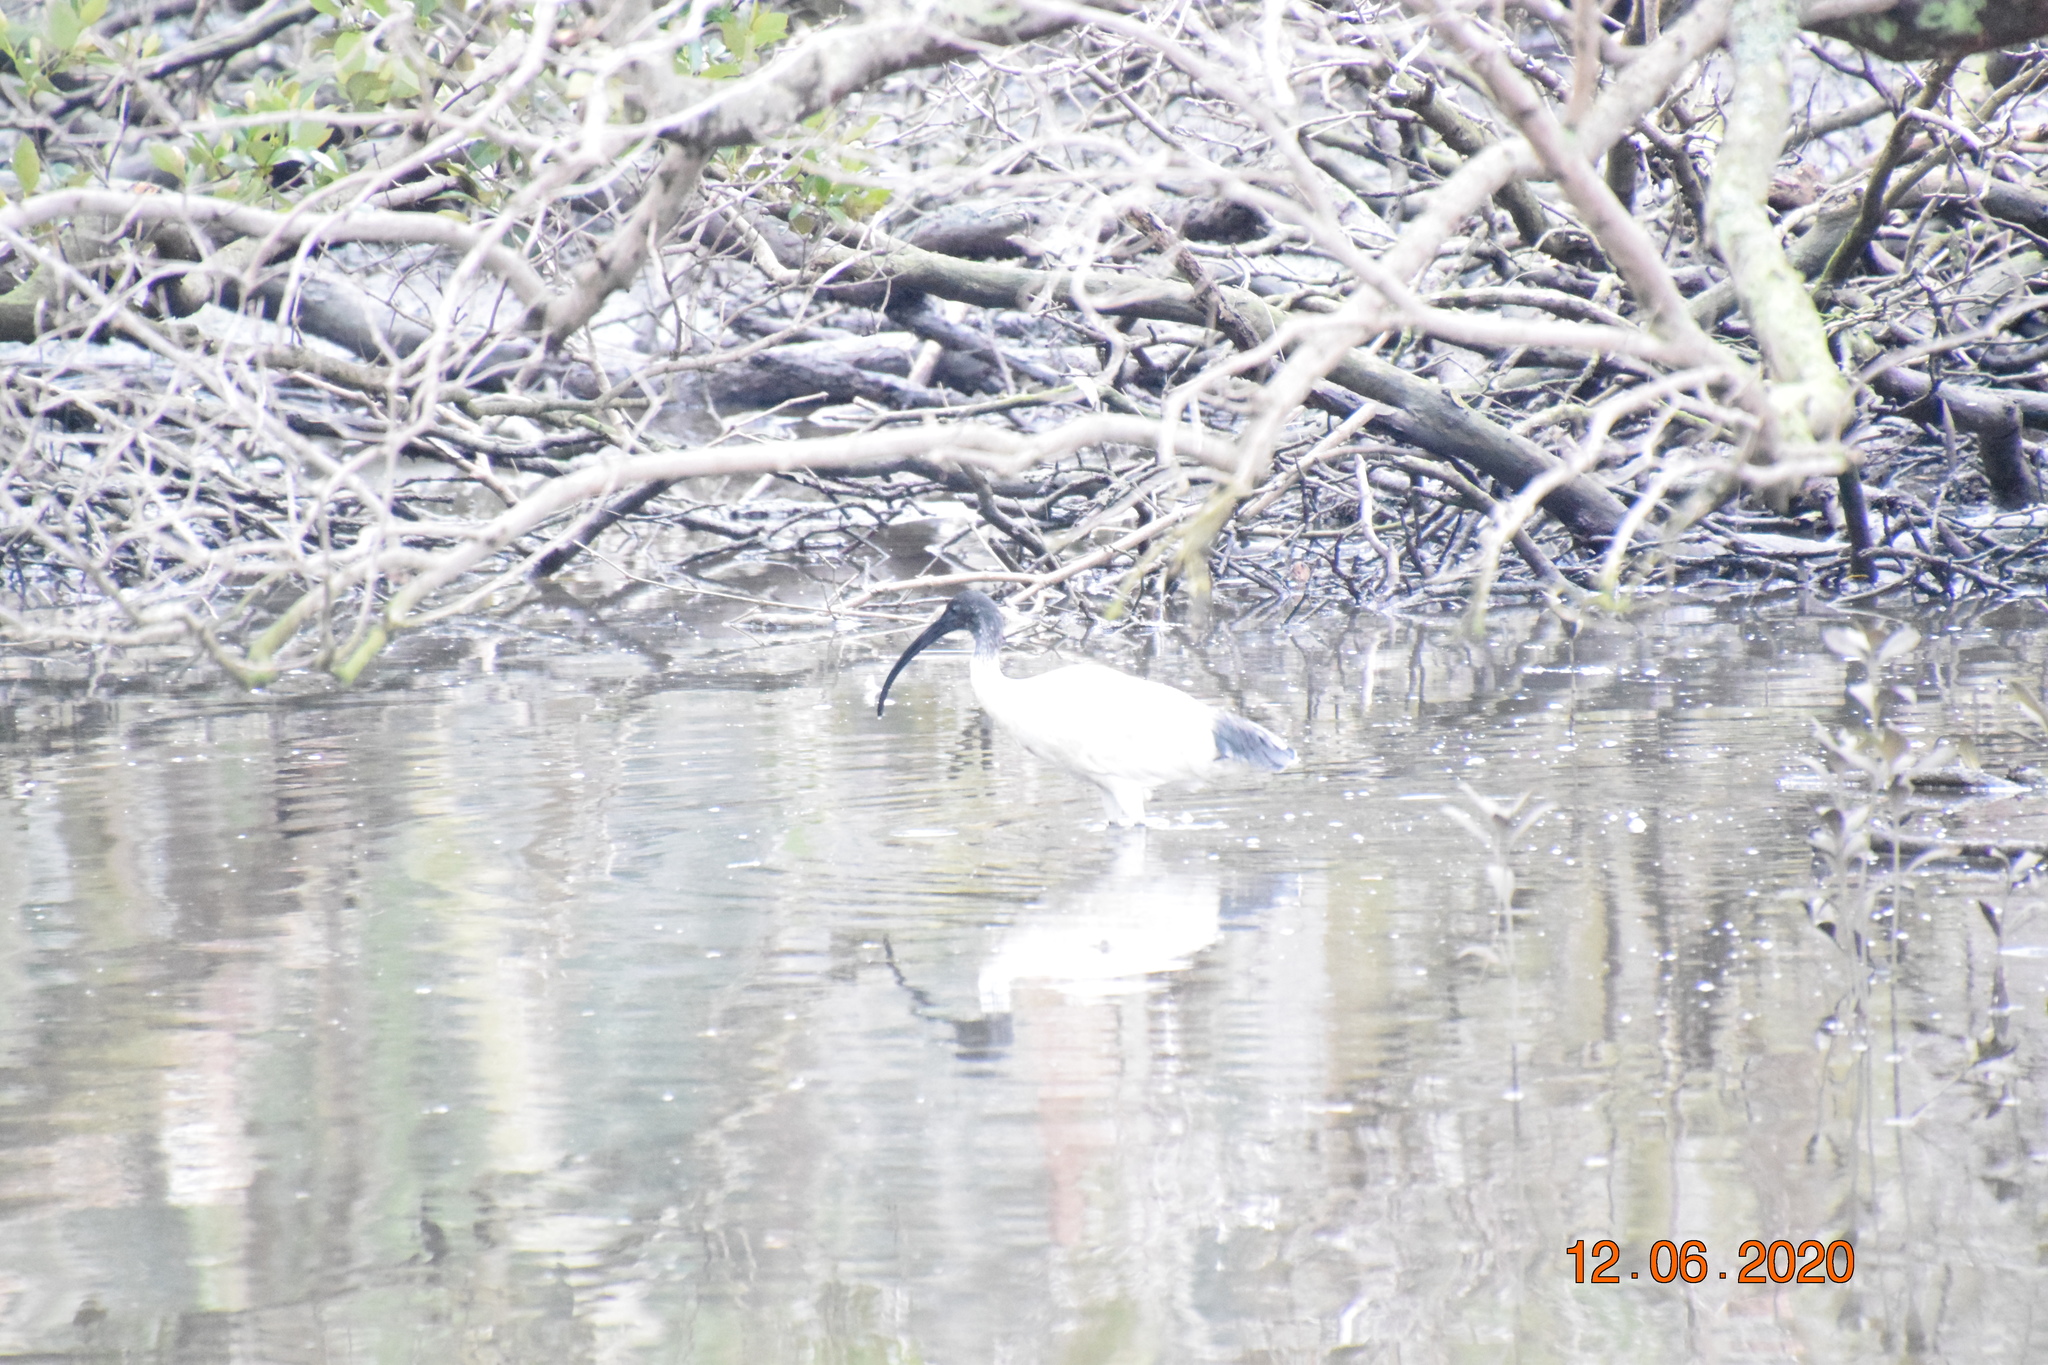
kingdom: Animalia
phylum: Chordata
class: Aves
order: Pelecaniformes
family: Threskiornithidae
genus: Threskiornis
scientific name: Threskiornis molucca
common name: Australian white ibis
